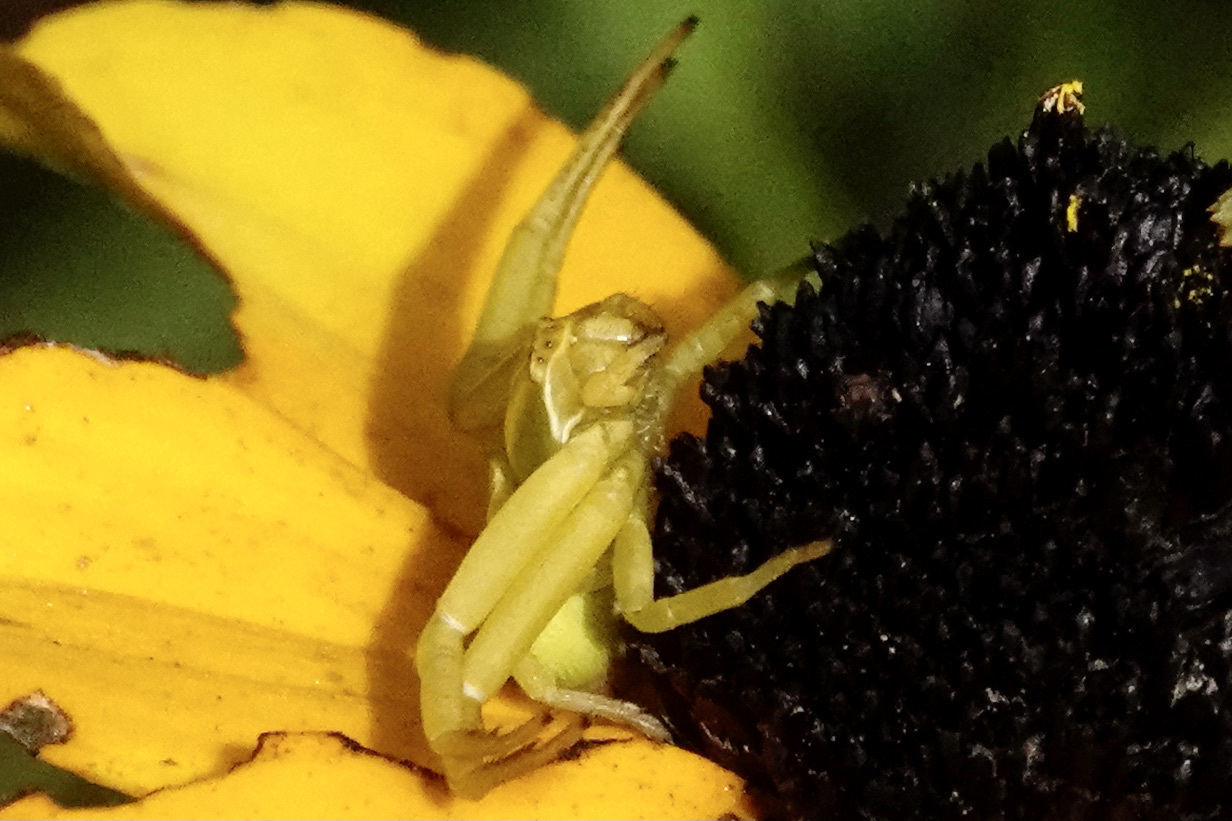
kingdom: Animalia
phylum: Arthropoda
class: Arachnida
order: Araneae
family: Thomisidae
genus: Misumenoides
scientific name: Misumenoides formosipes
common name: White-banded crab spider
